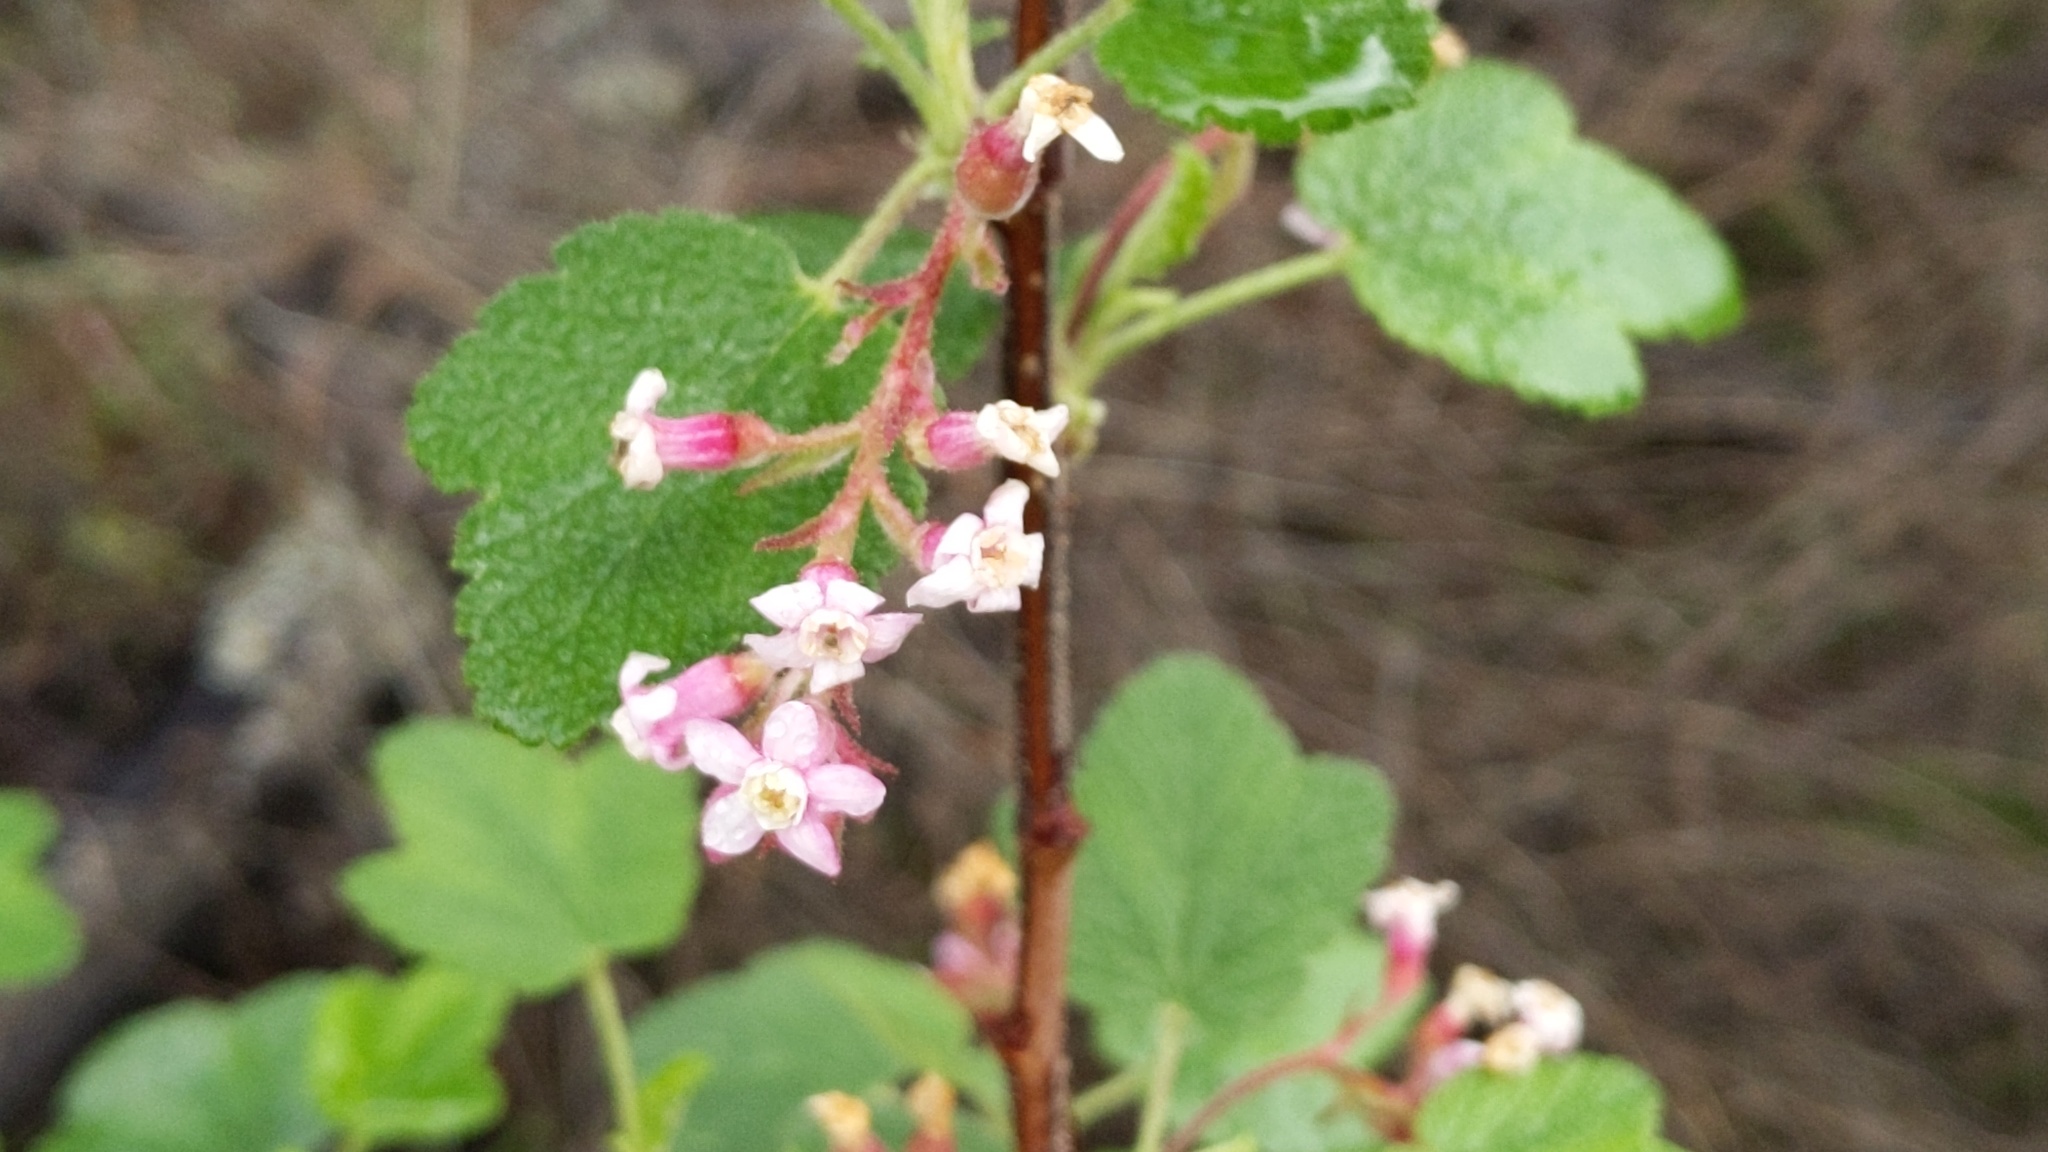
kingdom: Plantae
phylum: Tracheophyta
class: Magnoliopsida
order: Saxifragales
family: Grossulariaceae
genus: Ribes
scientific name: Ribes malvaceum
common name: Chaparral currant
